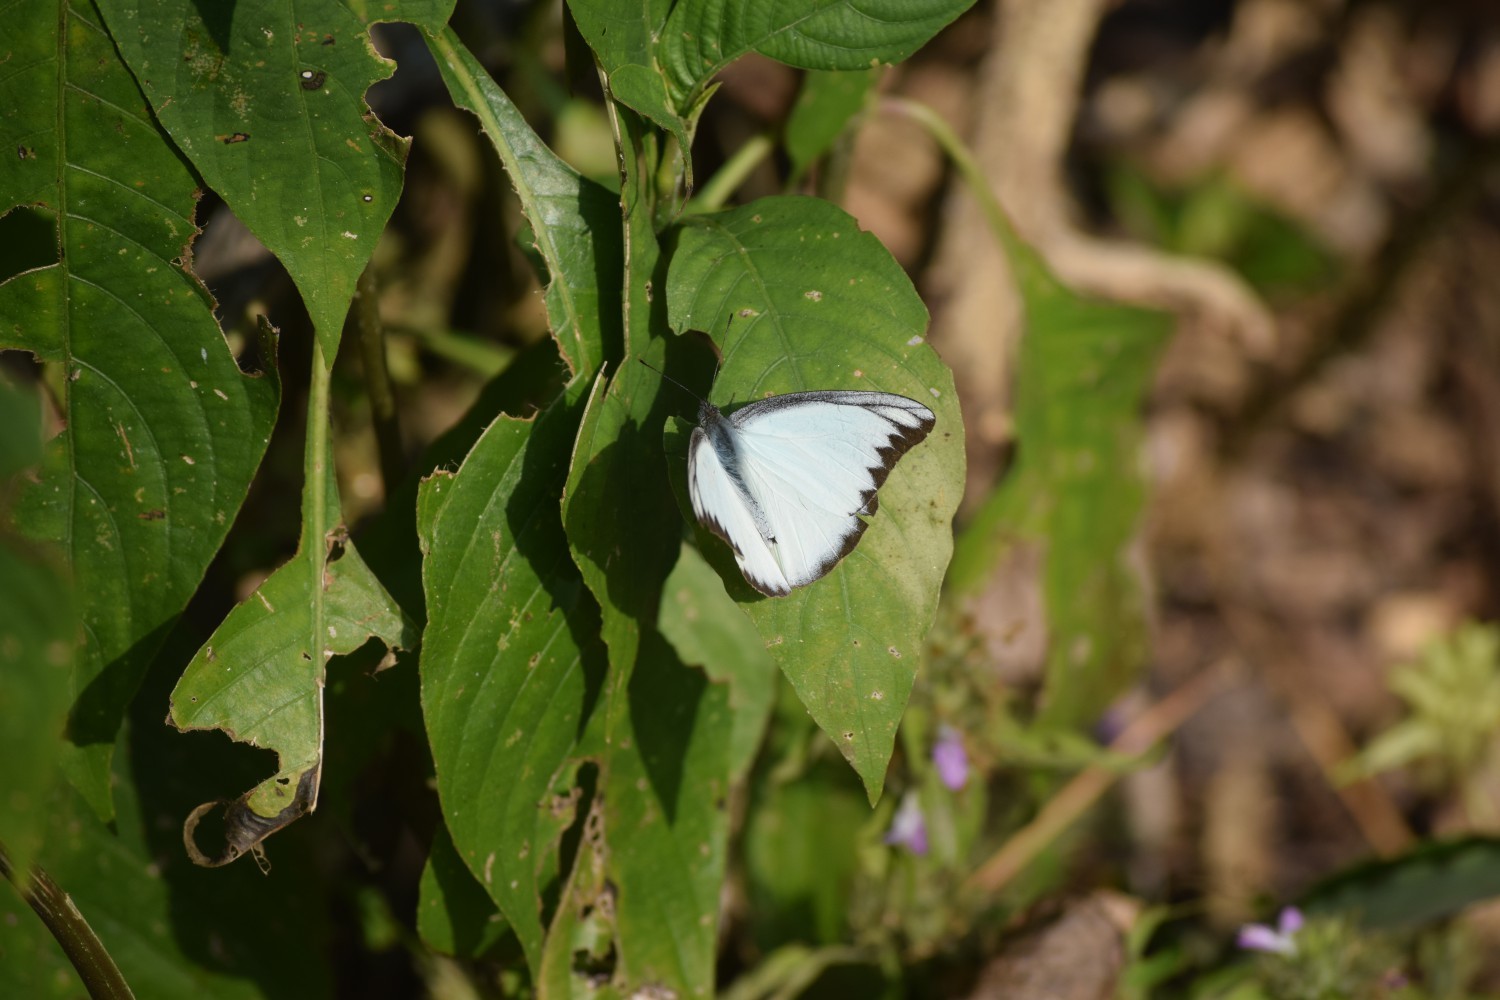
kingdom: Animalia
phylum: Arthropoda
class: Insecta
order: Lepidoptera
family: Pieridae
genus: Appias
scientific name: Appias lyncida
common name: Chocolate albatross
